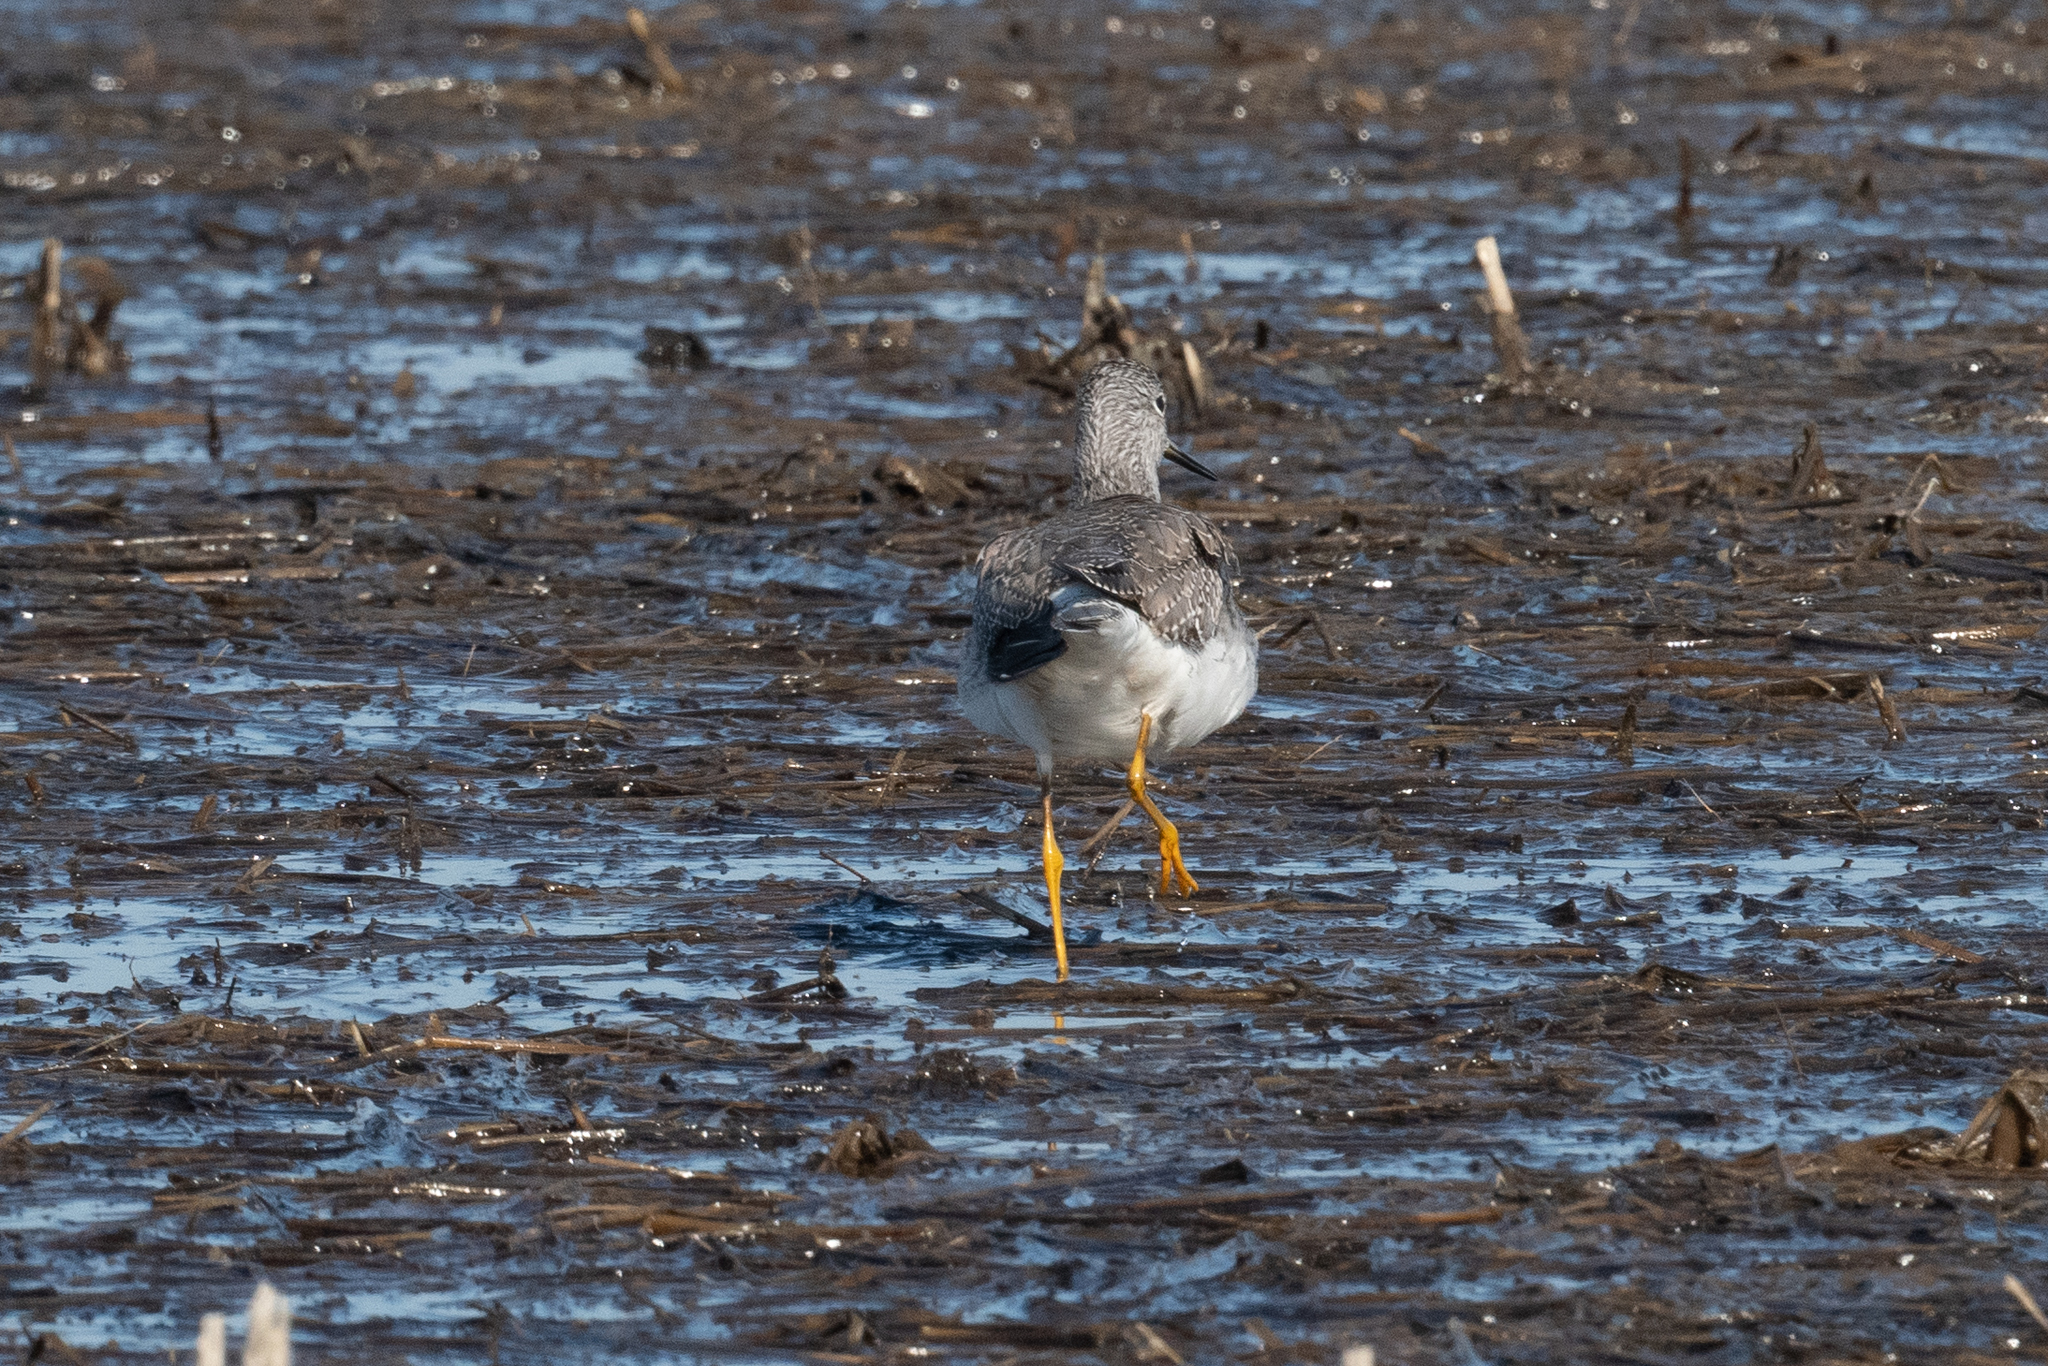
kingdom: Animalia
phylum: Chordata
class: Aves
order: Charadriiformes
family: Scolopacidae
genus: Tringa
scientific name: Tringa melanoleuca
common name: Greater yellowlegs
